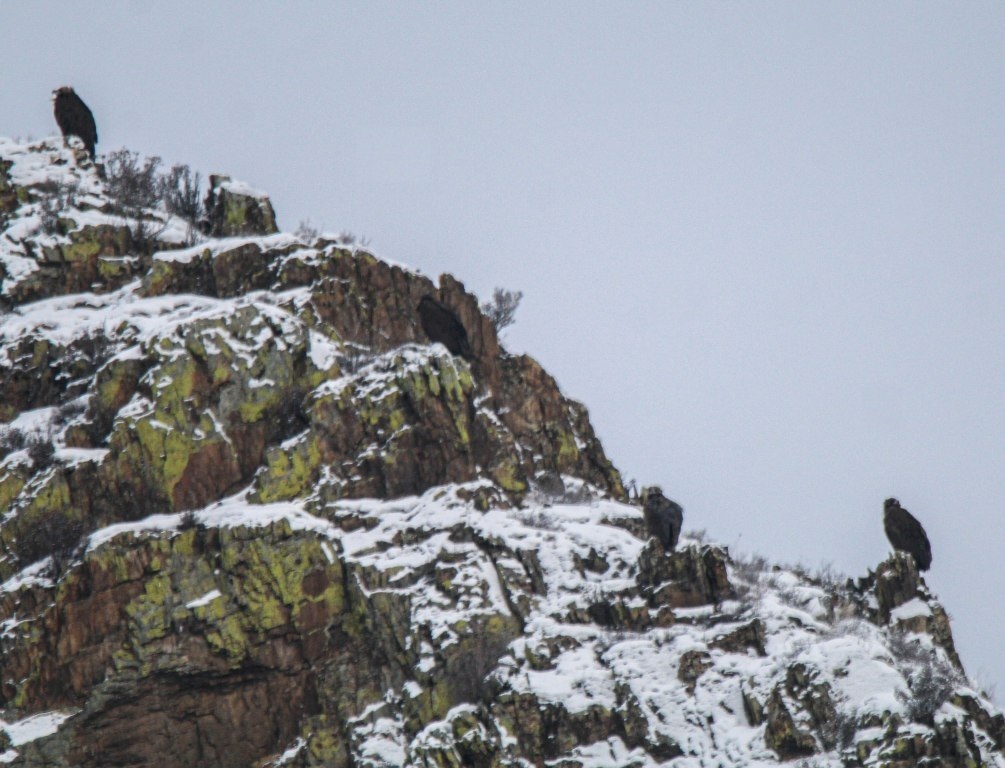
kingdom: Animalia
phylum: Chordata
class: Aves
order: Accipitriformes
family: Accipitridae
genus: Aegypius
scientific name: Aegypius monachus
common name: Cinereous vulture
